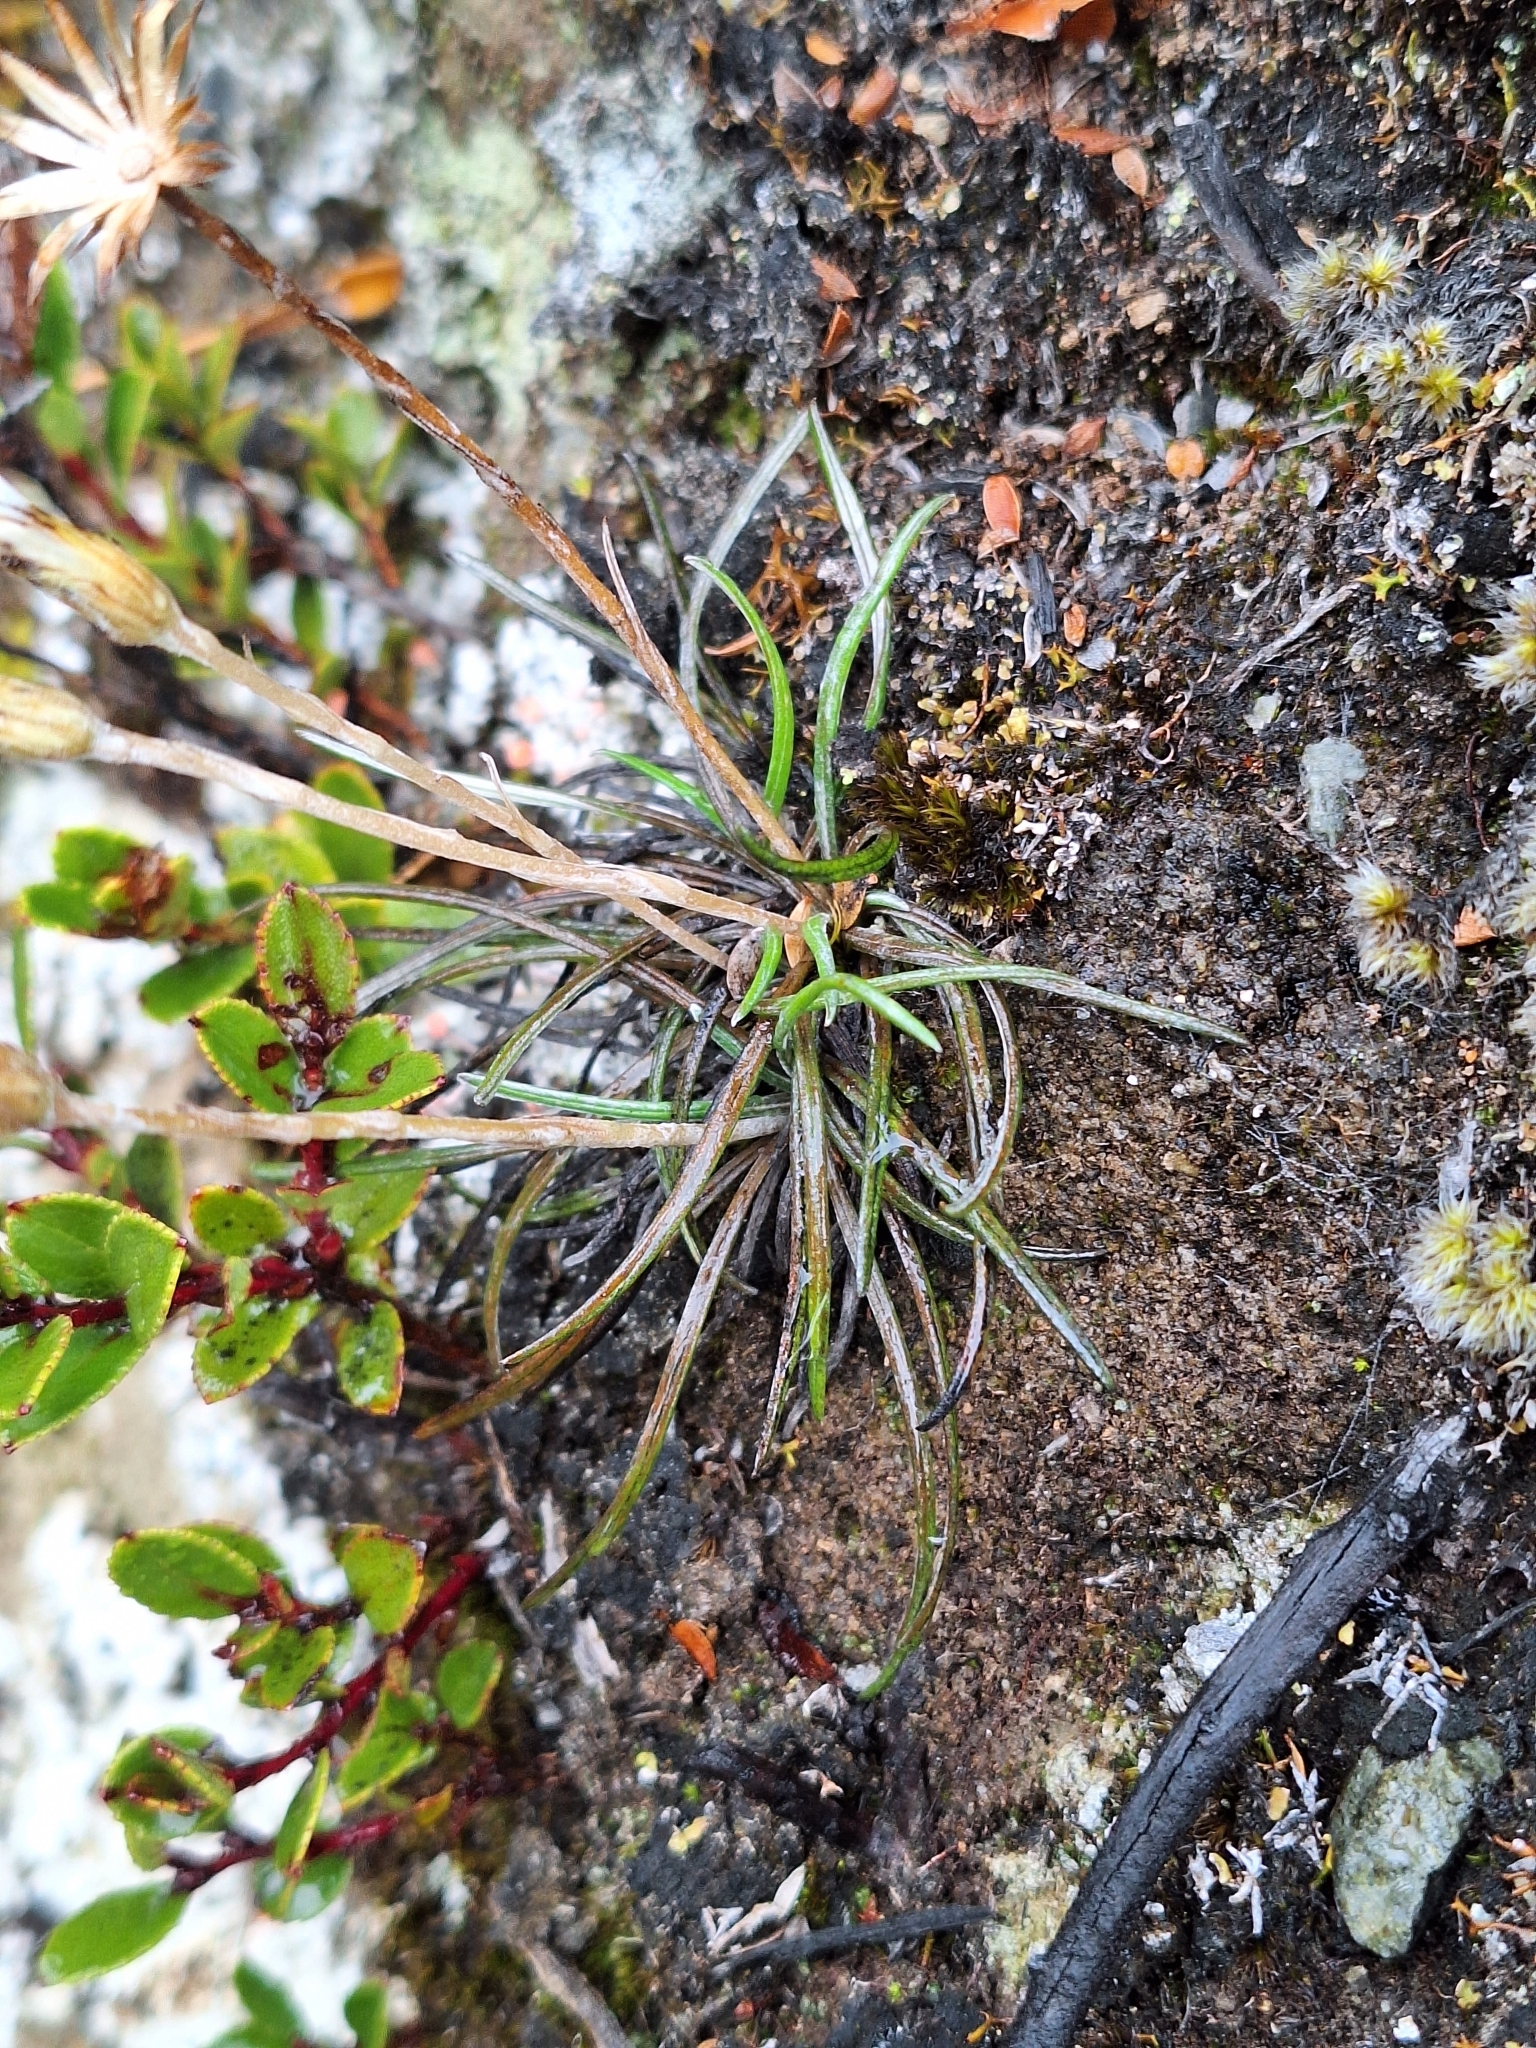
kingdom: Plantae
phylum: Tracheophyta
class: Magnoliopsida
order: Asterales
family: Asteraceae
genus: Celmisia
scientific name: Celmisia gracilenta
